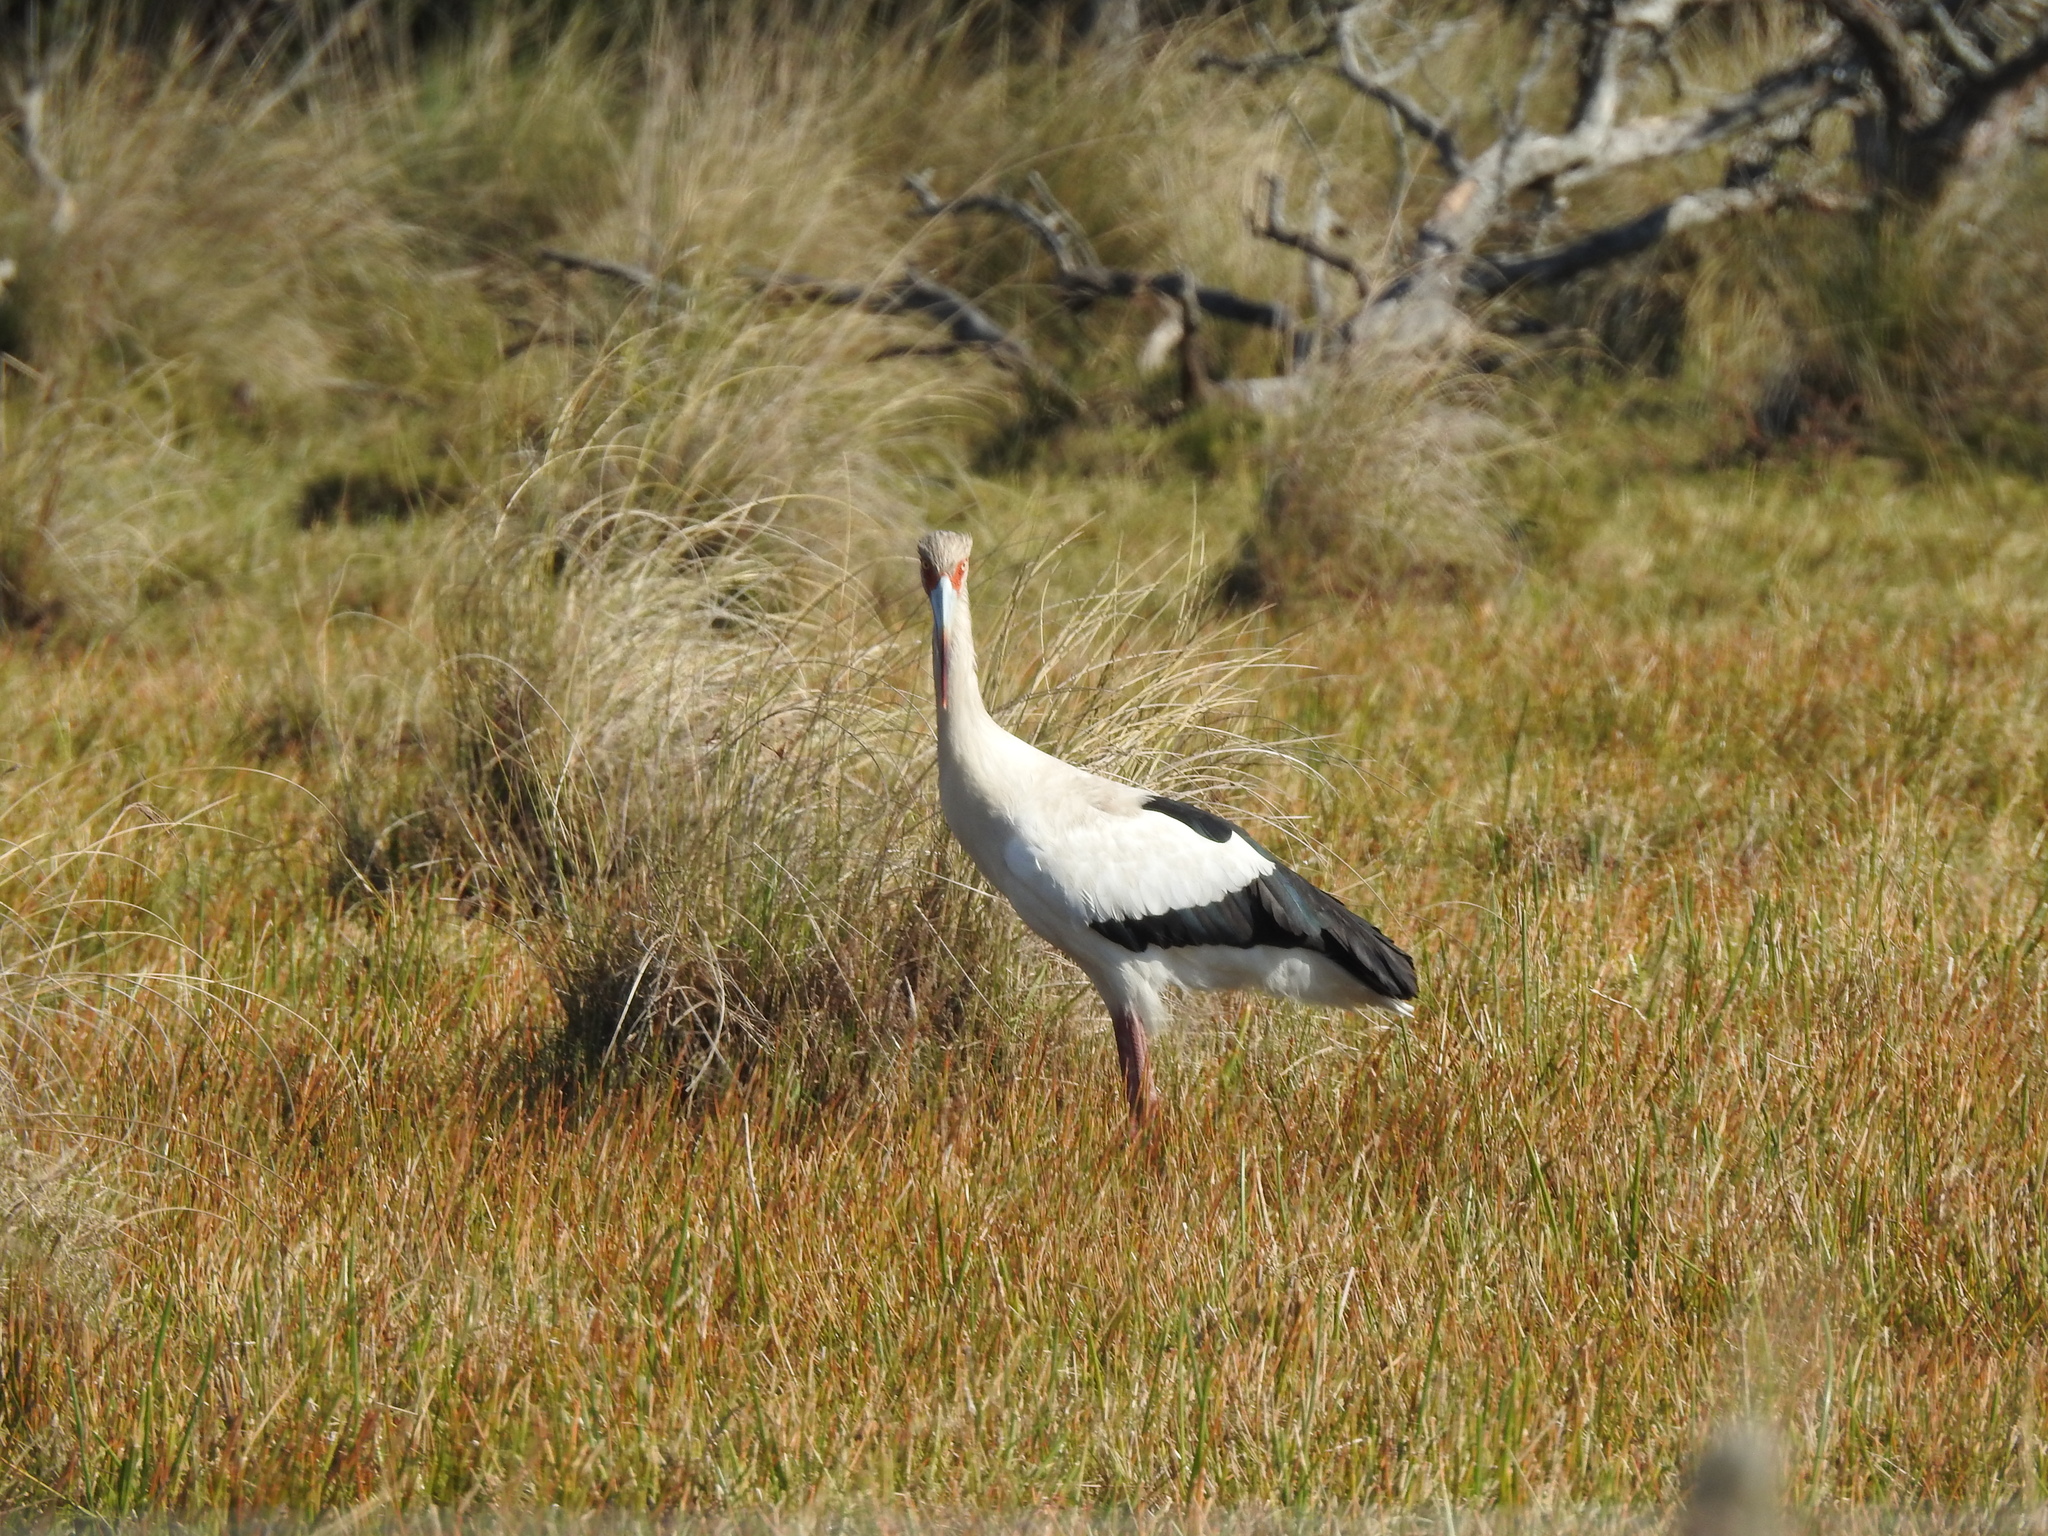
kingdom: Animalia
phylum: Chordata
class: Aves
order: Ciconiiformes
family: Ciconiidae
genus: Ciconia
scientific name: Ciconia maguari
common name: Maguari stork
